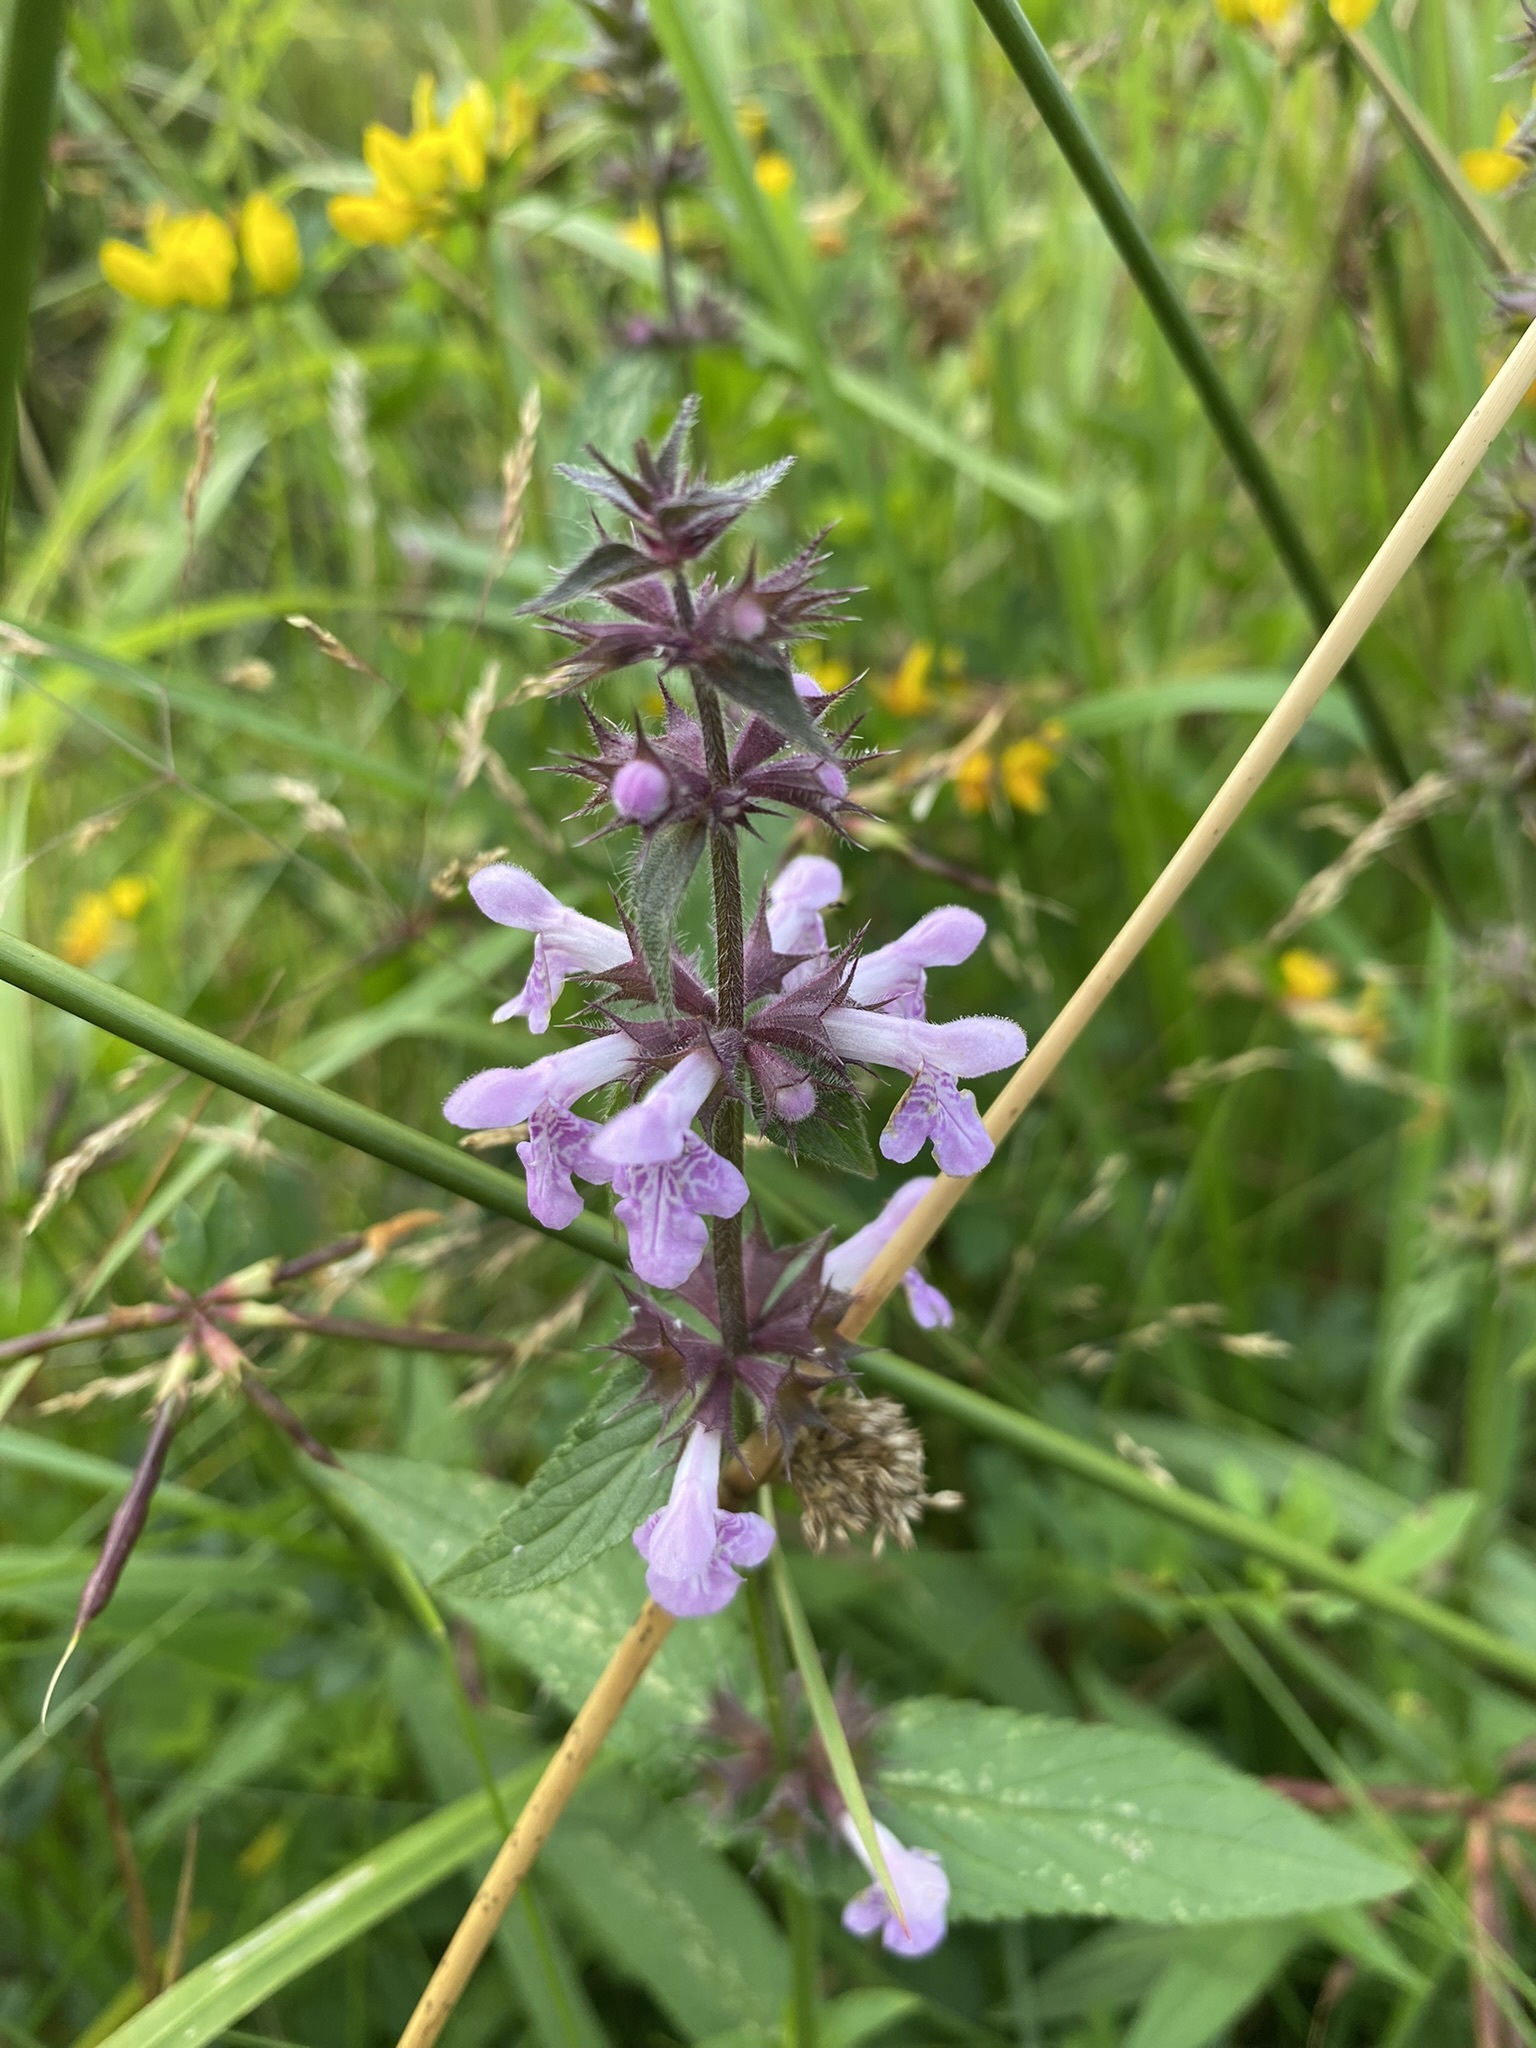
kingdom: Plantae
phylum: Tracheophyta
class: Magnoliopsida
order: Lamiales
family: Lamiaceae
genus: Stachys
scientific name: Stachys palustris
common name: Marsh woundwort
